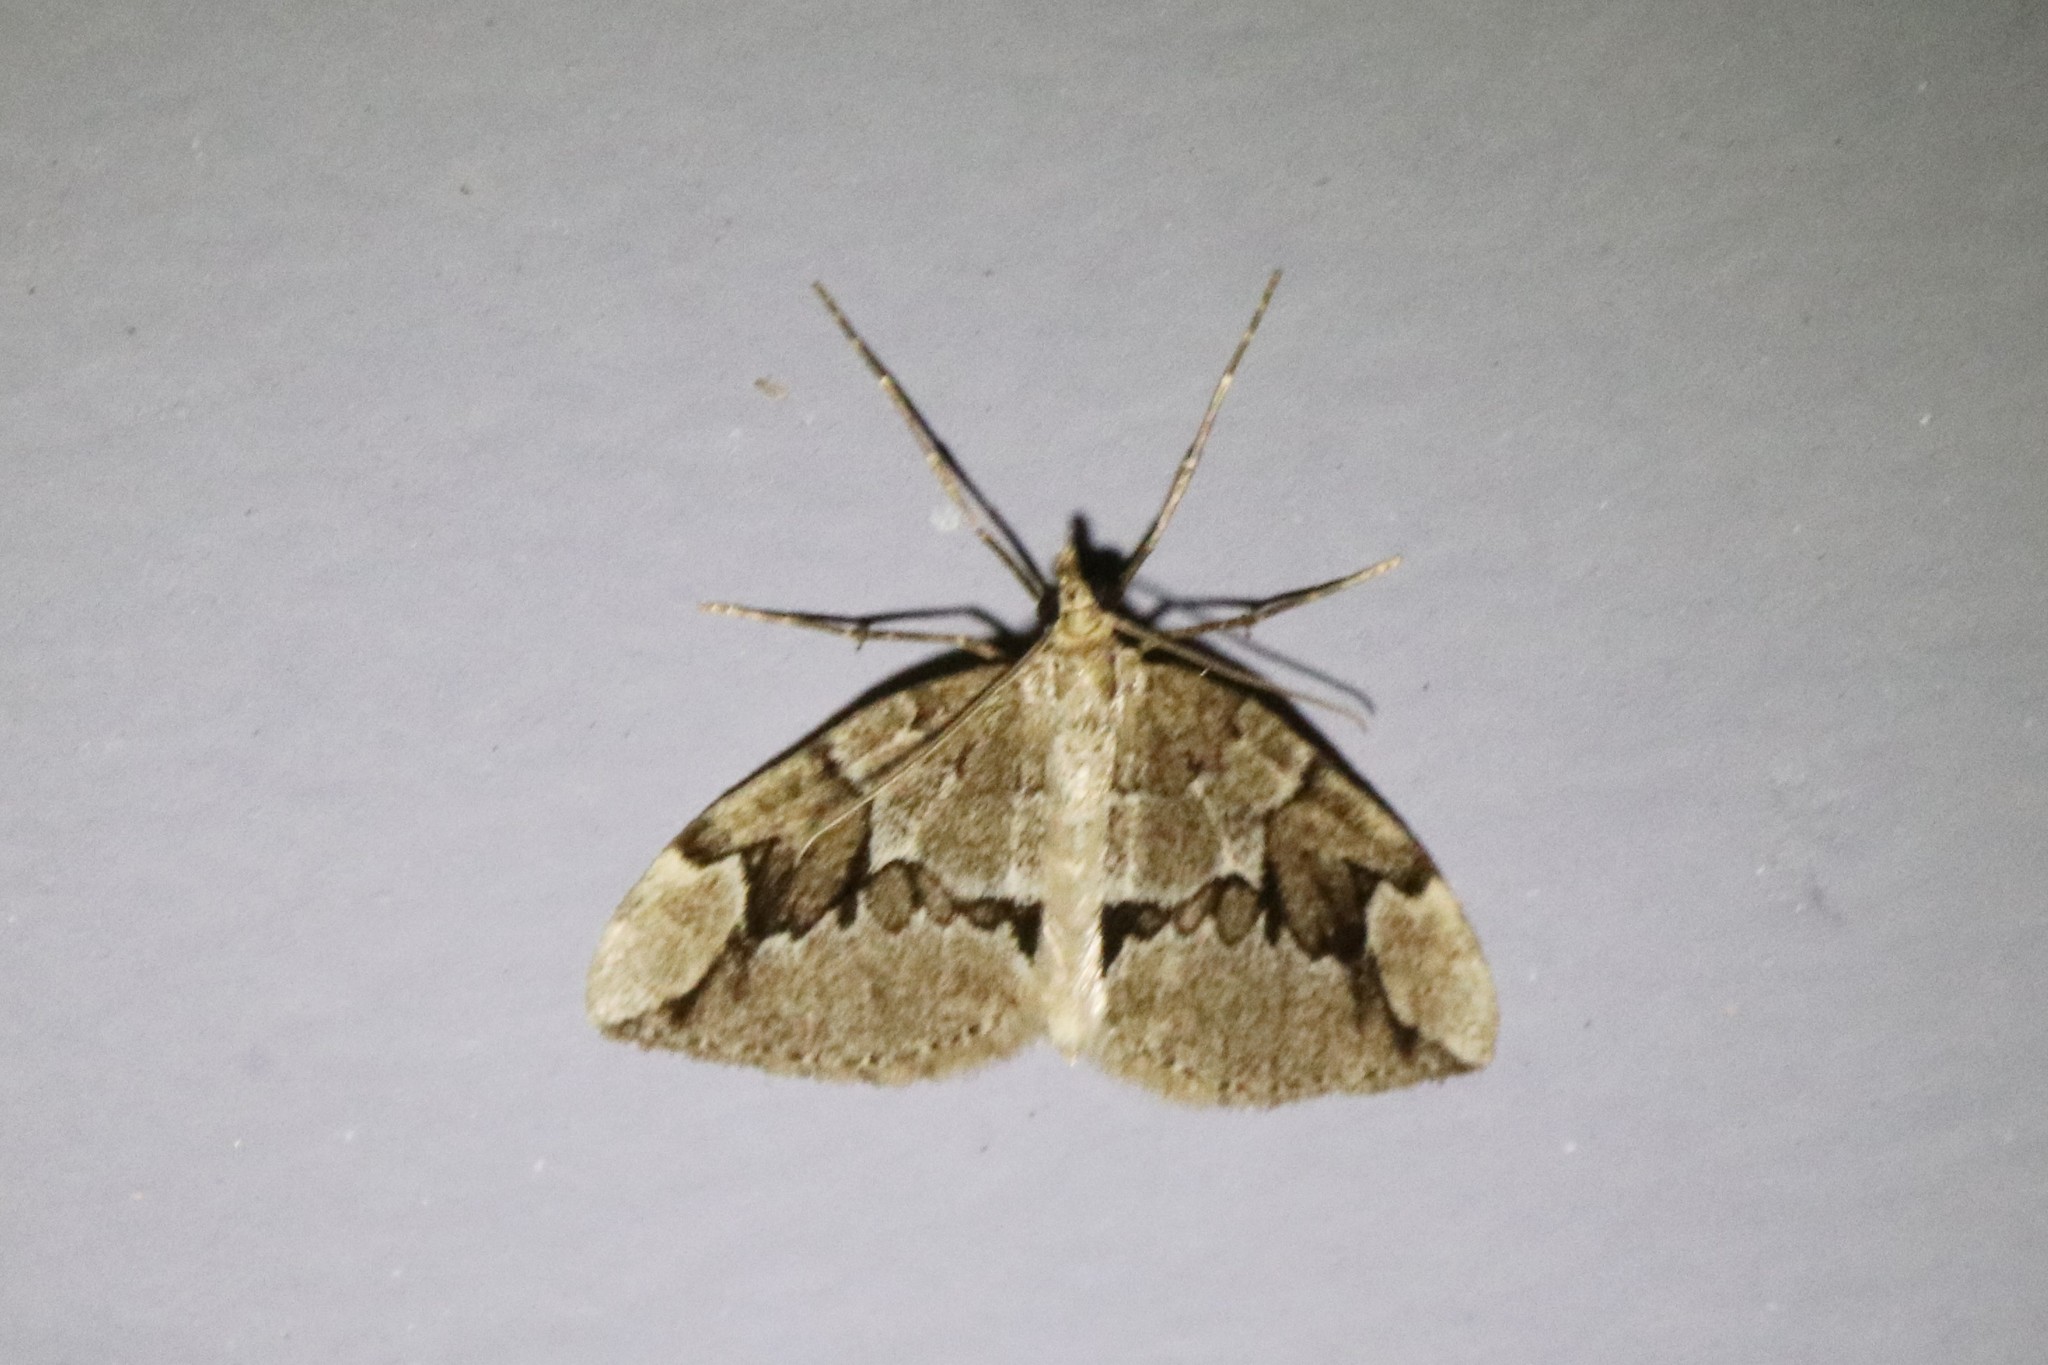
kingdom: Animalia
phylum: Arthropoda
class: Insecta
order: Lepidoptera
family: Geometridae
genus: Thera
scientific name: Thera juniperata
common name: Juniper carpet
